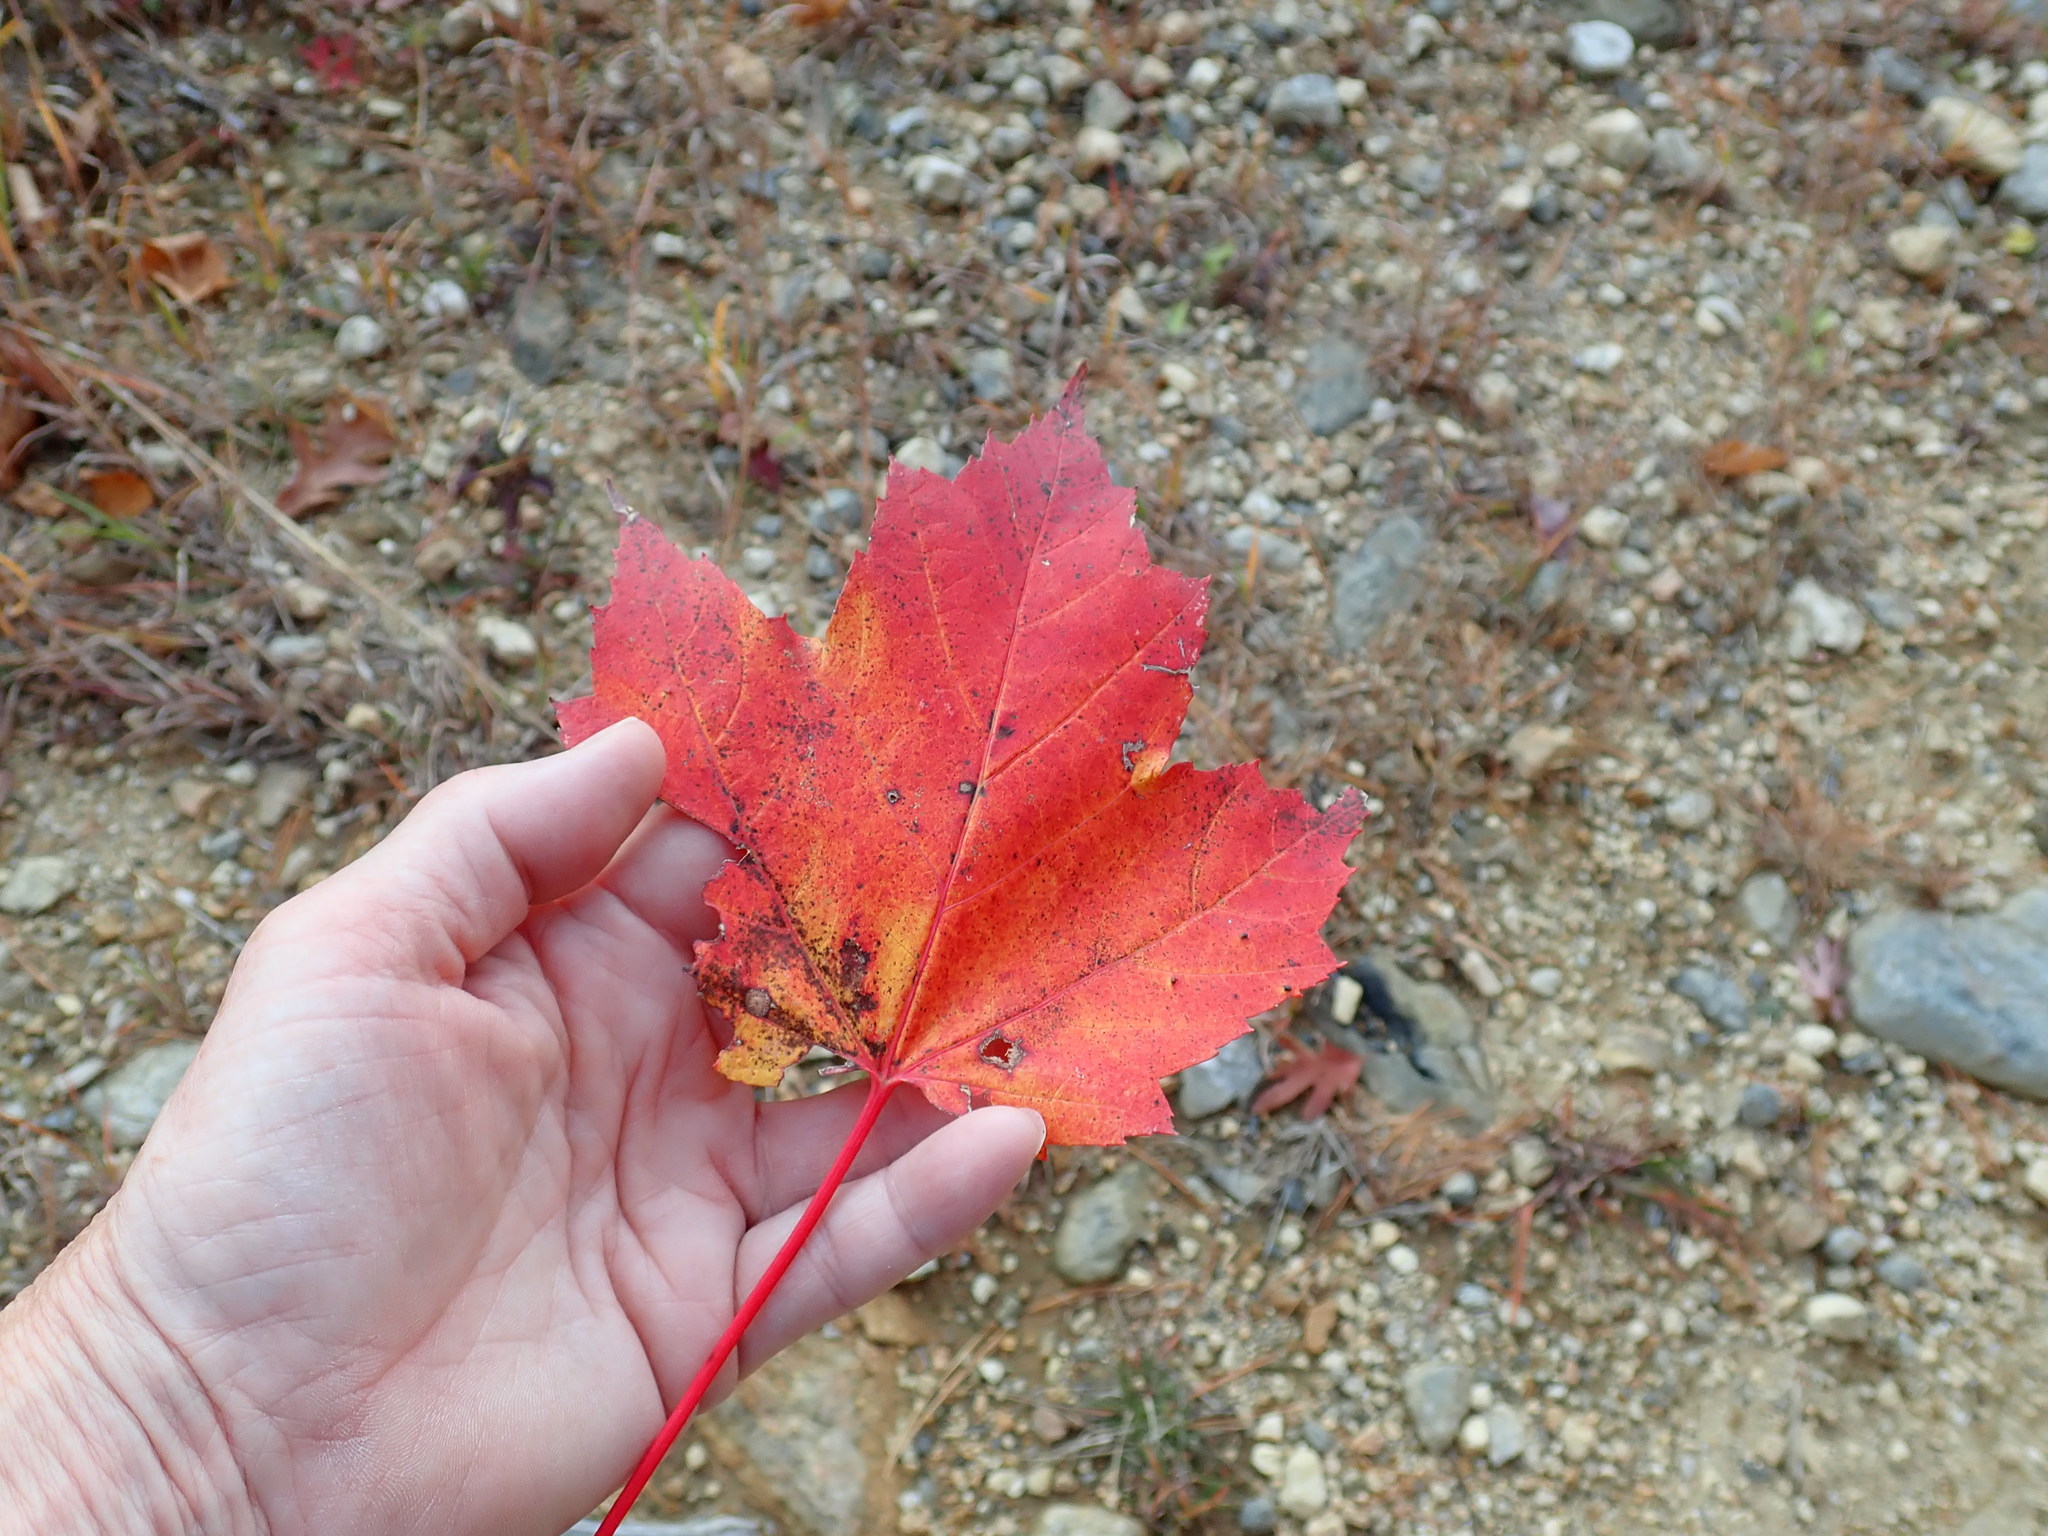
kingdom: Plantae
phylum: Tracheophyta
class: Magnoliopsida
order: Sapindales
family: Sapindaceae
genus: Acer
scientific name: Acer rubrum
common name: Red maple
